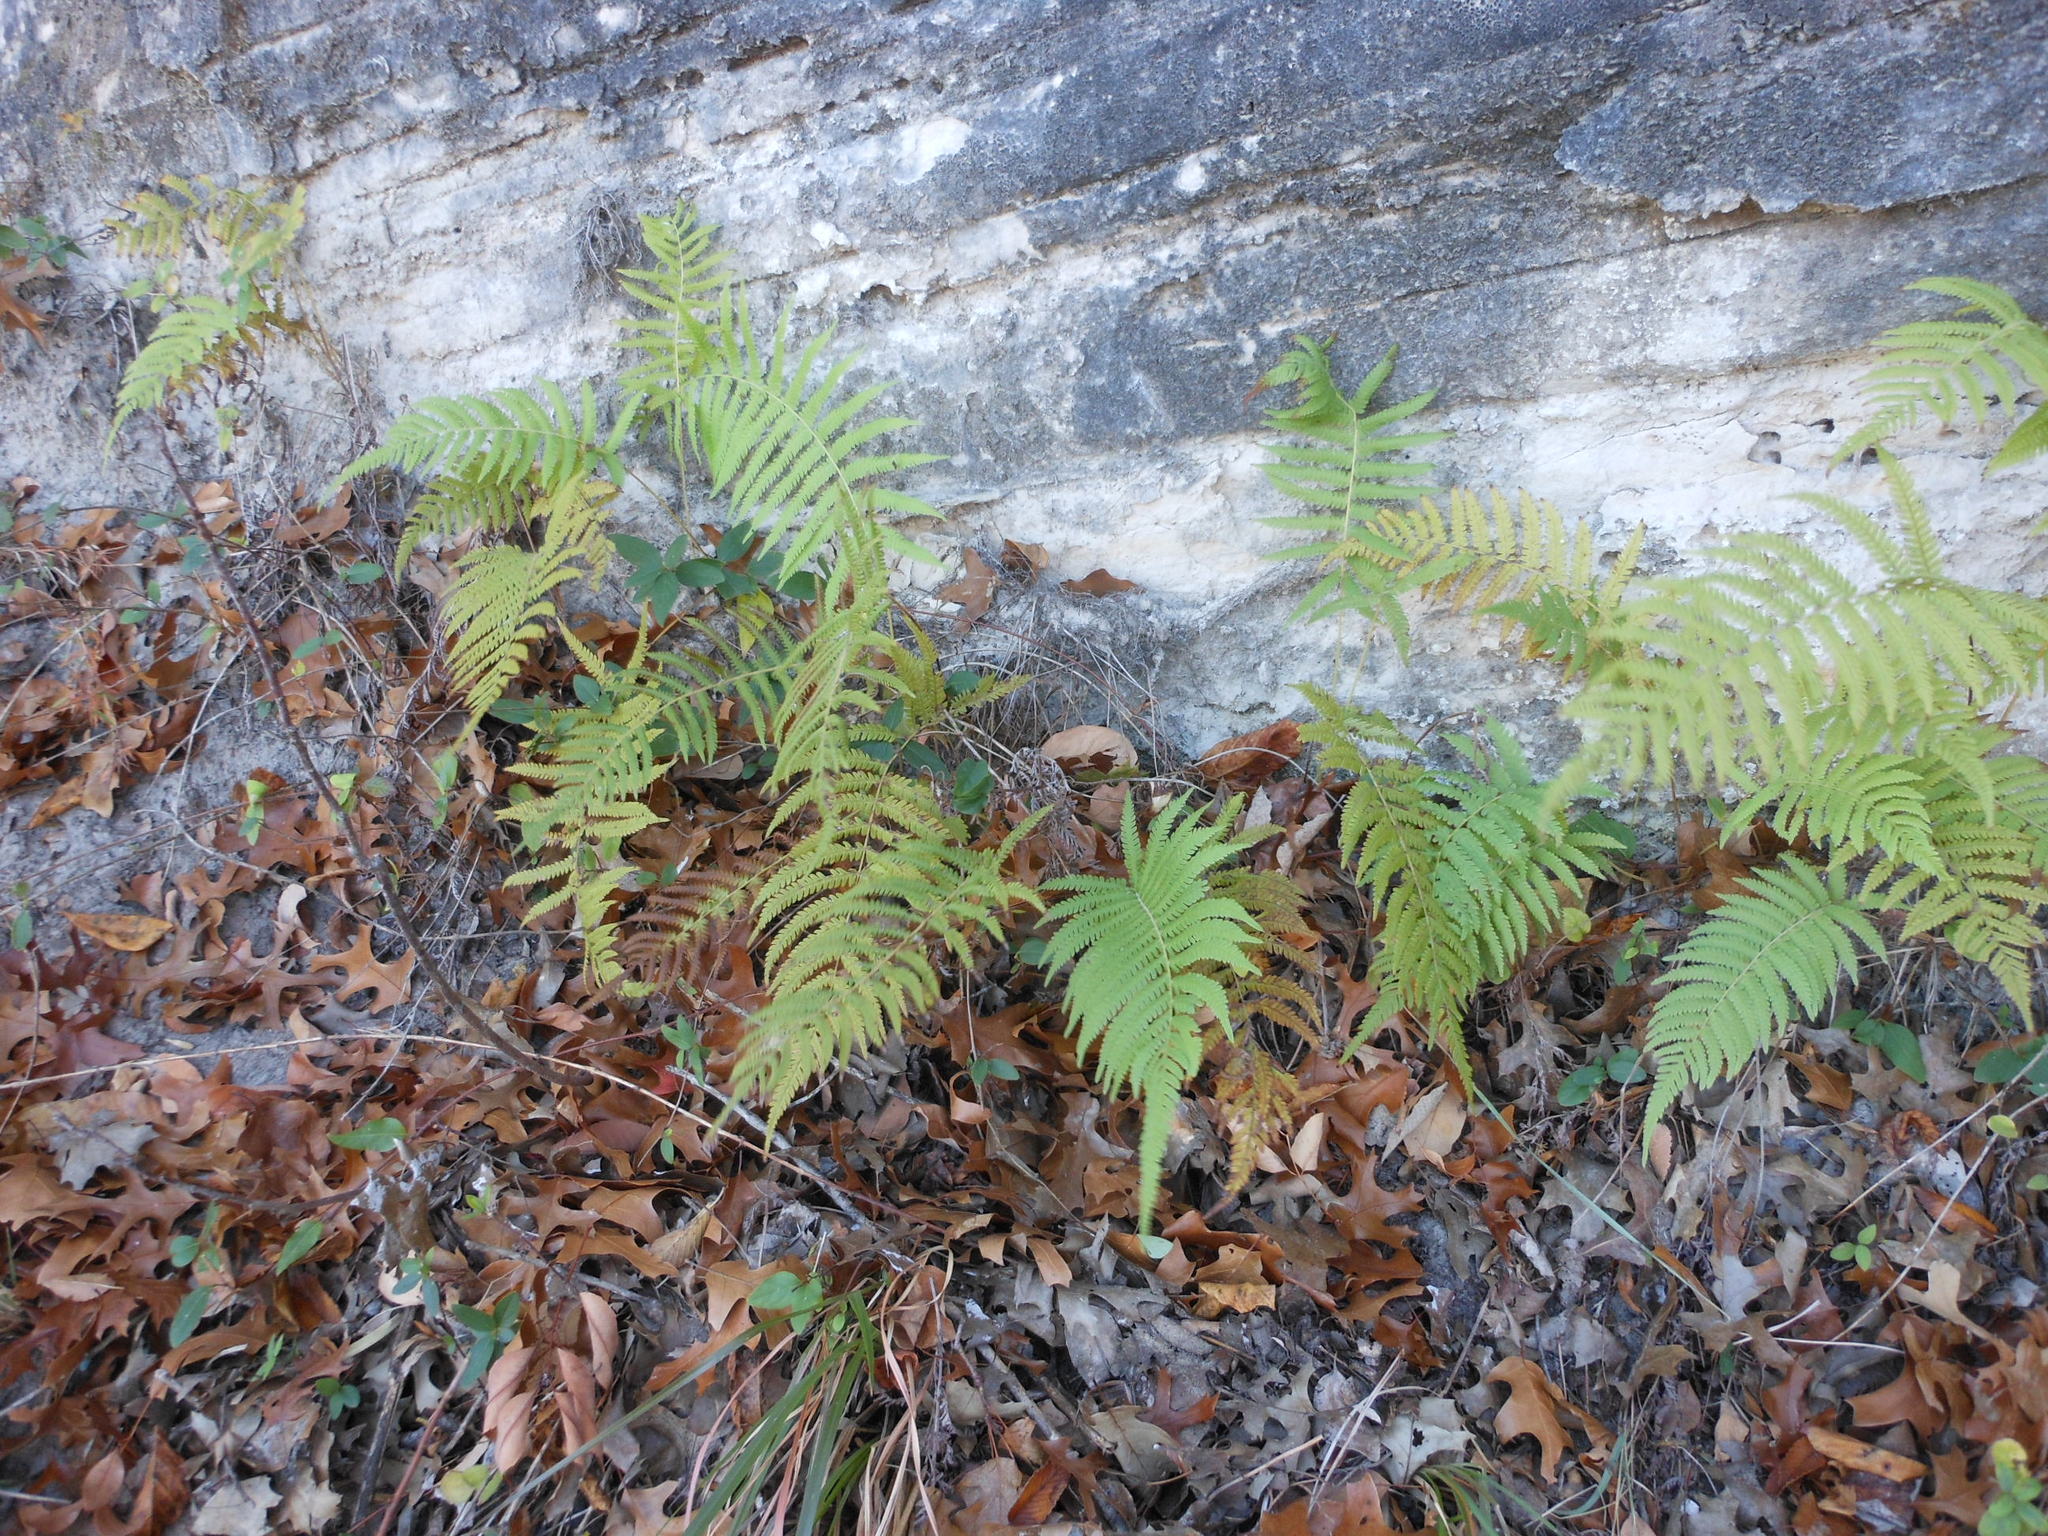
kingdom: Plantae
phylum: Tracheophyta
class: Polypodiopsida
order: Polypodiales
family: Thelypteridaceae
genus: Pelazoneuron
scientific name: Pelazoneuron kunthii
